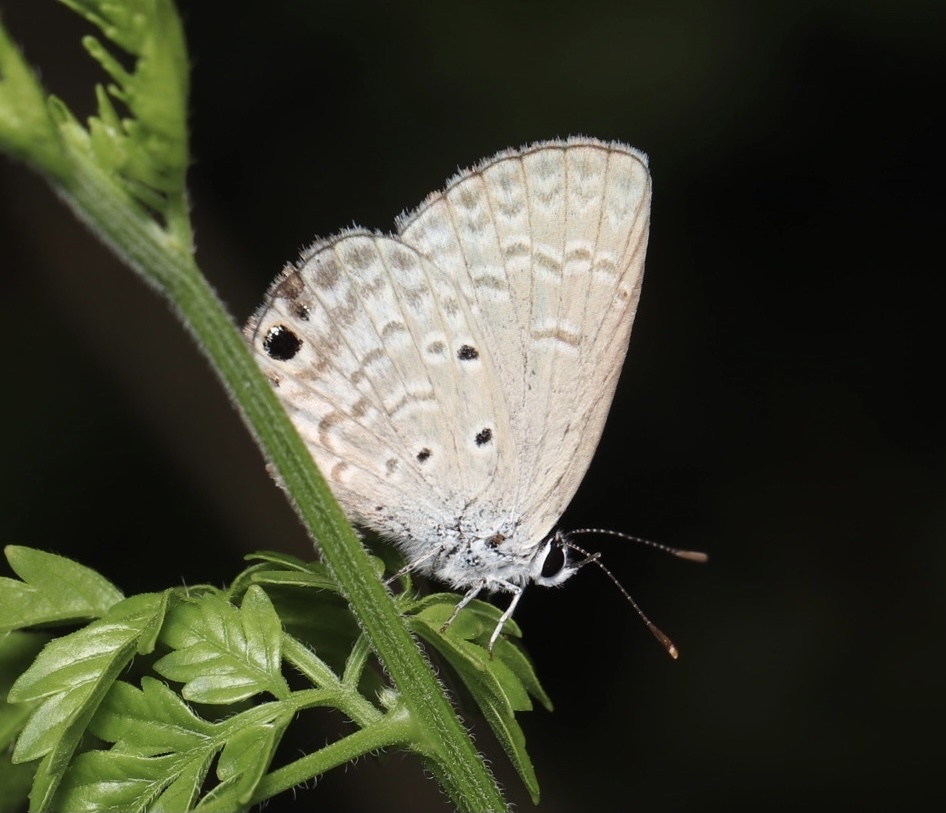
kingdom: Animalia
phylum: Arthropoda
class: Insecta
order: Lepidoptera
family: Lycaenidae
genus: Hemiargus
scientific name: Hemiargus ceraunus
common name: Ceraunus blue
